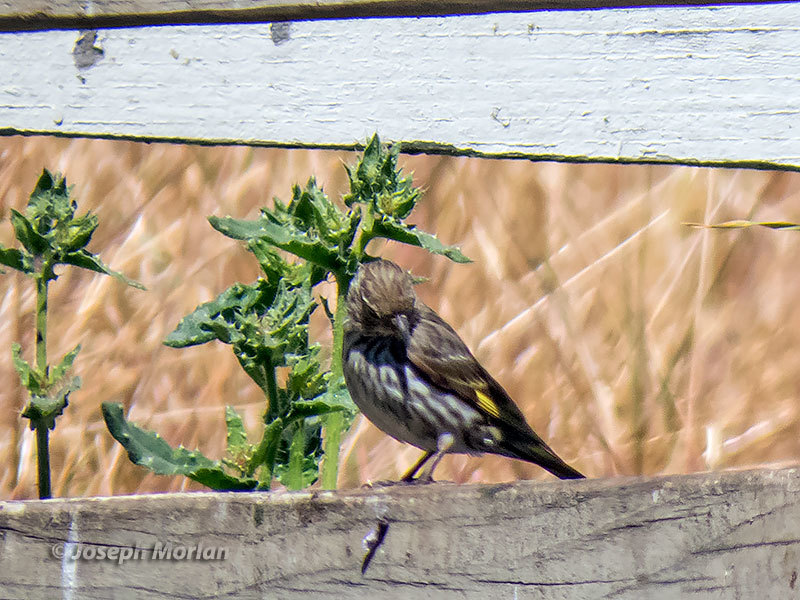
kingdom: Animalia
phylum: Chordata
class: Aves
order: Passeriformes
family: Fringillidae
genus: Spinus
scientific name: Spinus pinus
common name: Pine siskin
